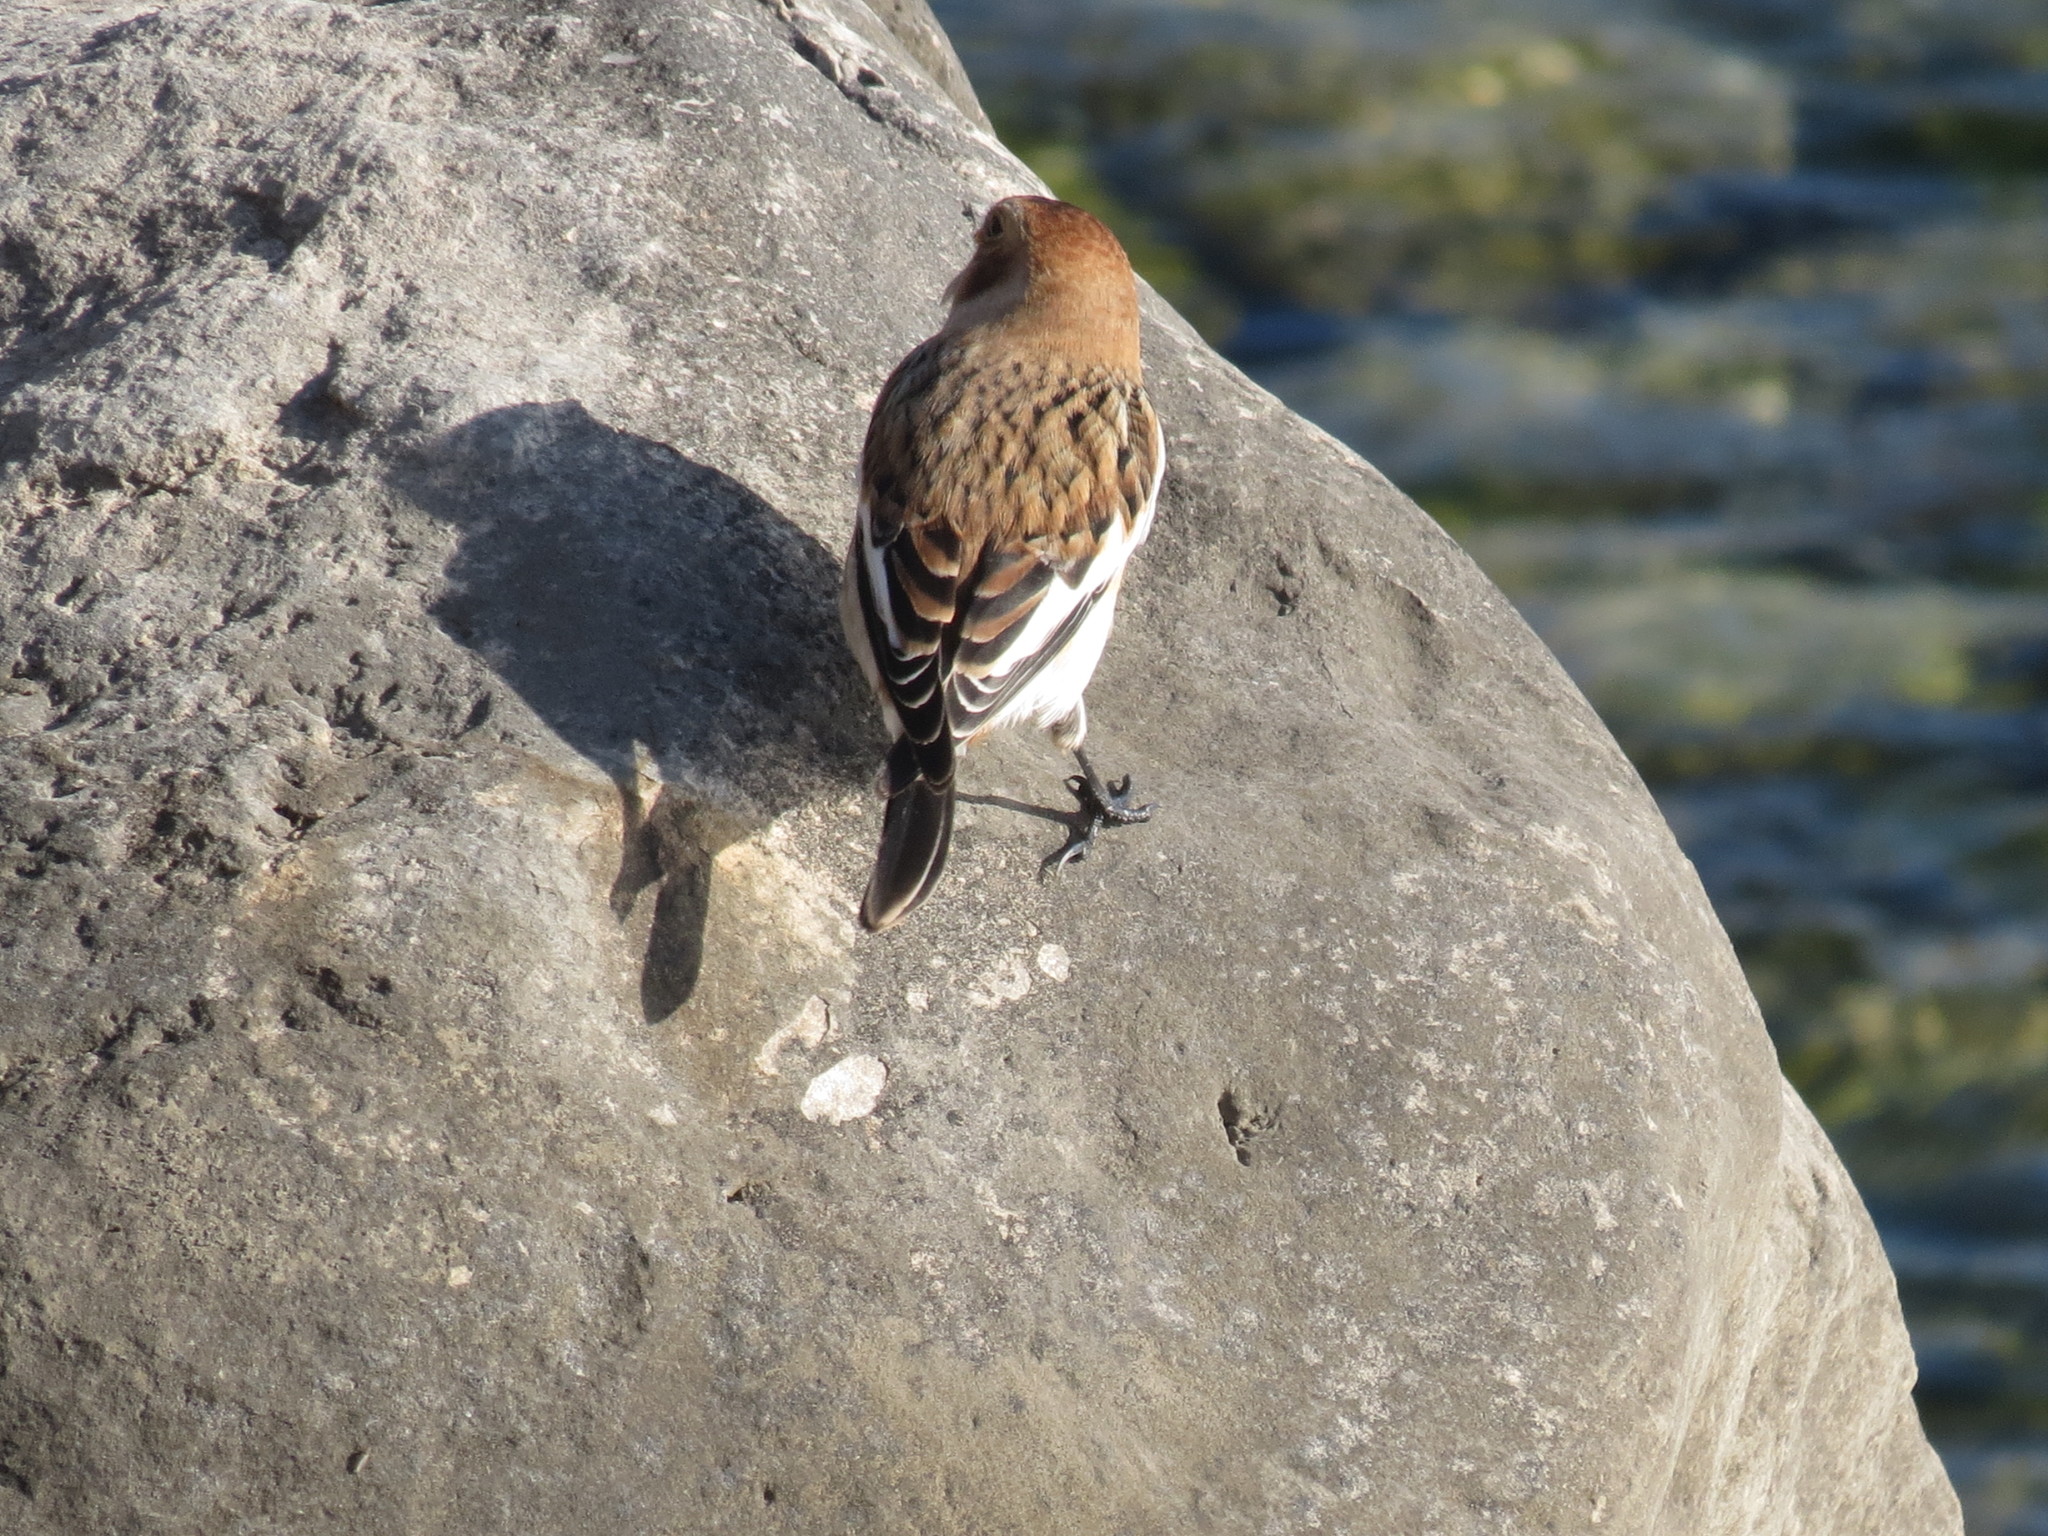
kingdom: Animalia
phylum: Chordata
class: Aves
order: Passeriformes
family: Calcariidae
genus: Plectrophenax
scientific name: Plectrophenax nivalis
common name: Snow bunting
